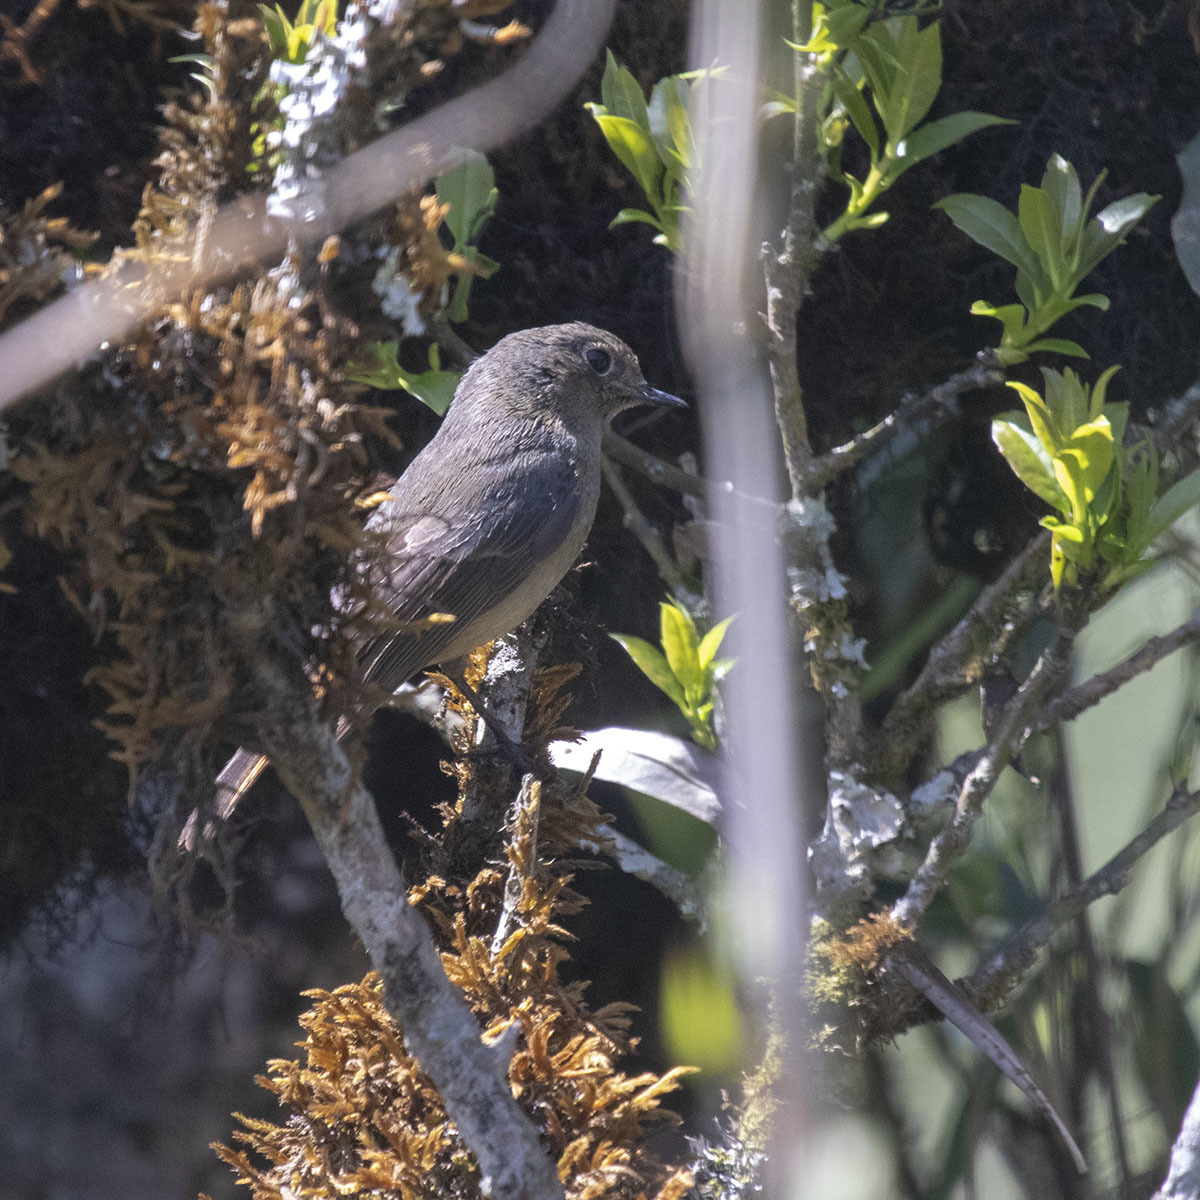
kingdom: Animalia
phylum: Chordata
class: Aves
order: Passeriformes
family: Muscicapidae
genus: Cyornis
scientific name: Cyornis unicolor
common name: Pale blue flycatcher
